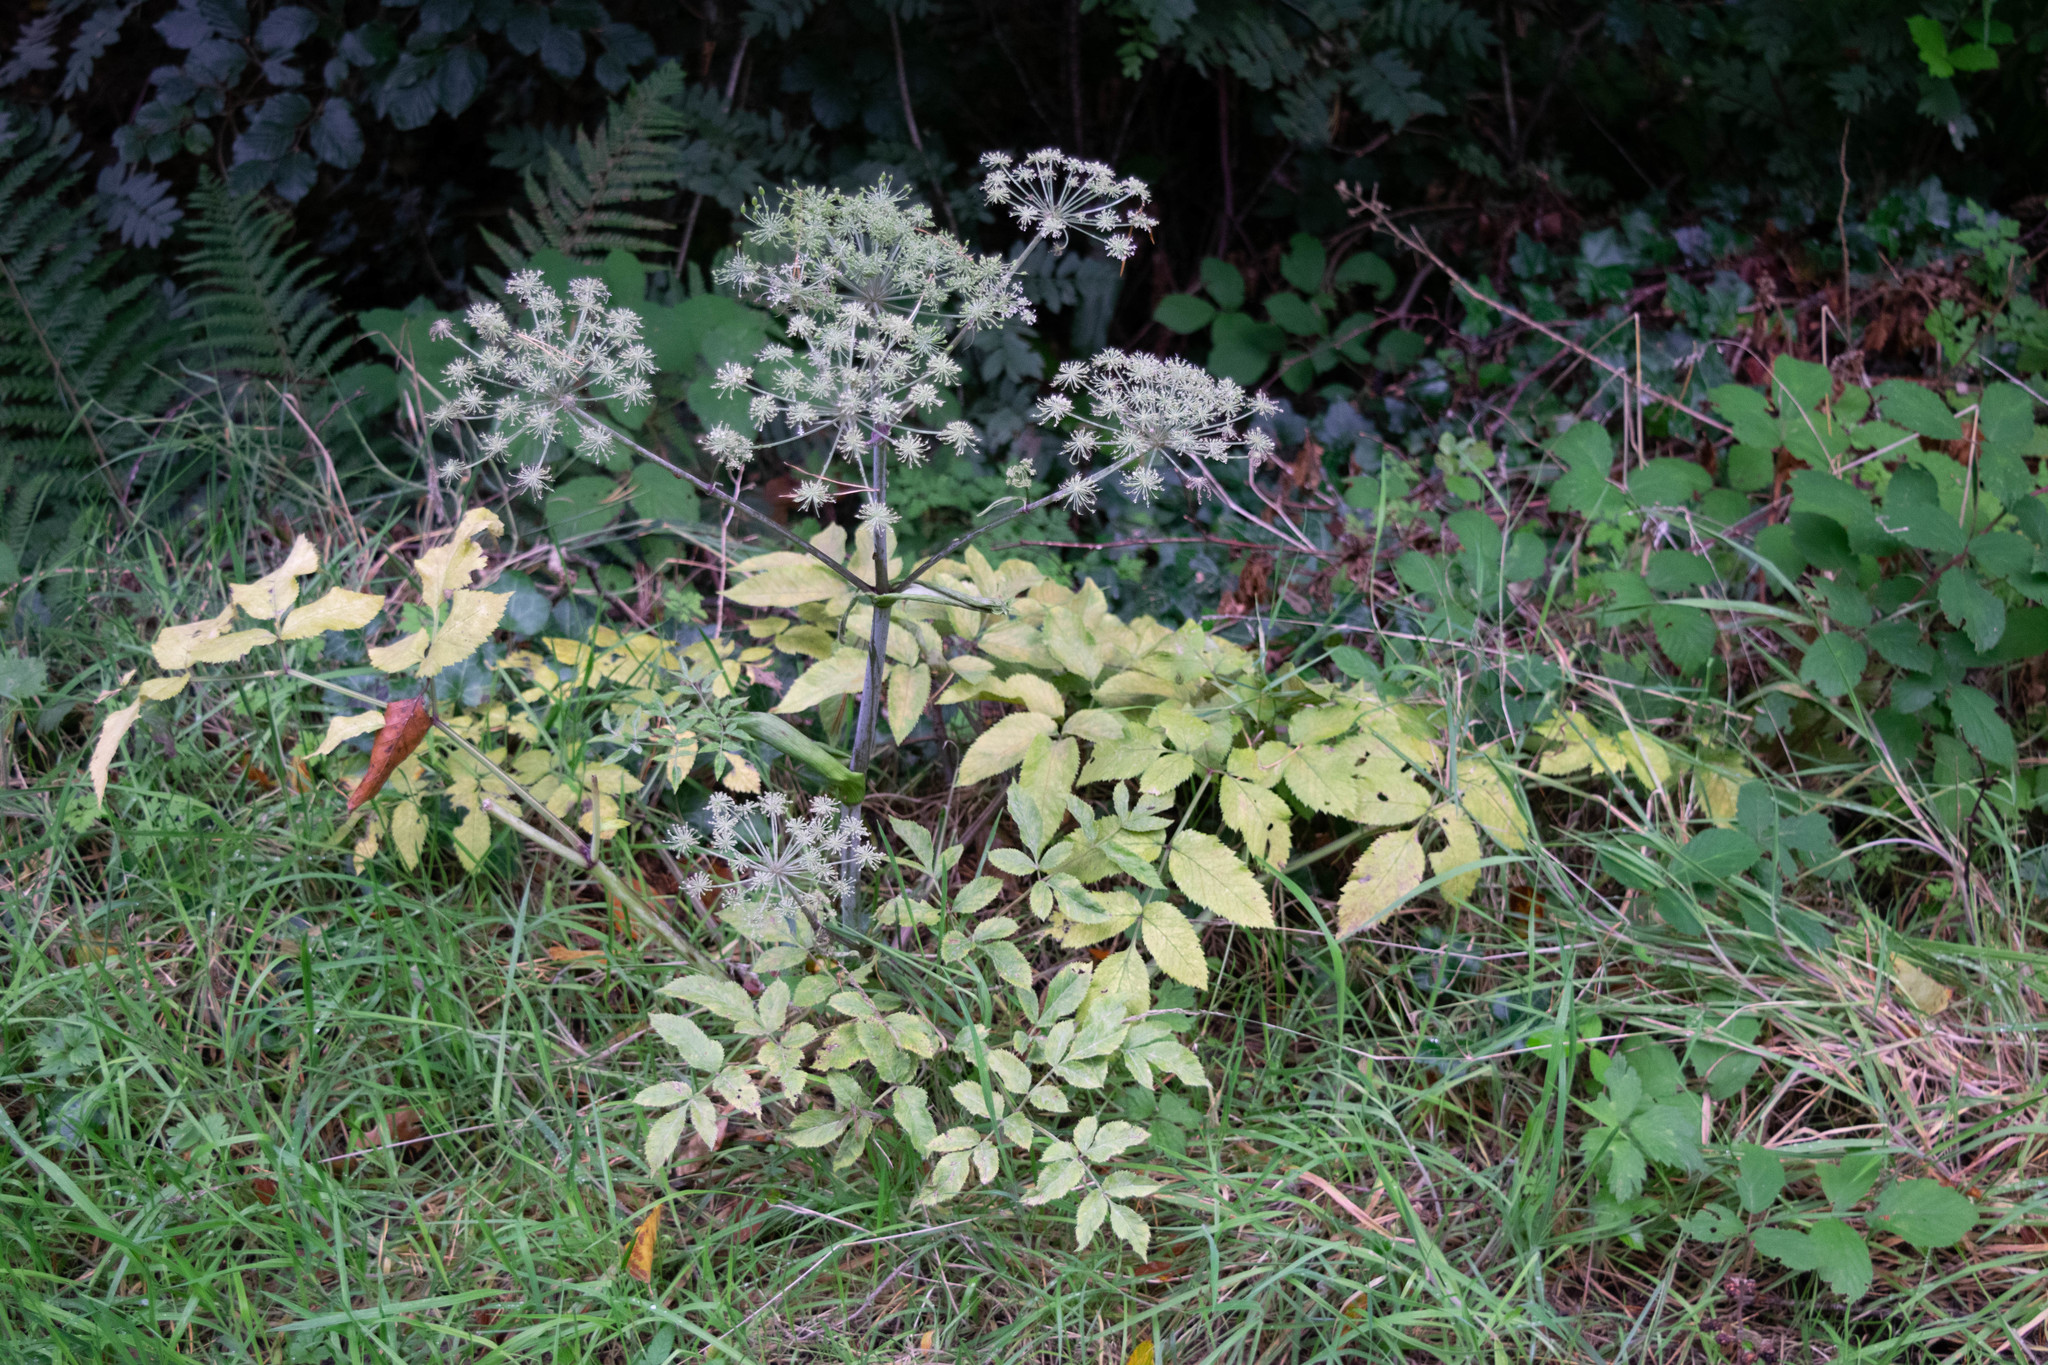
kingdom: Plantae
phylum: Tracheophyta
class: Magnoliopsida
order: Apiales
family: Apiaceae
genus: Angelica
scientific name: Angelica sylvestris
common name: Wild angelica
